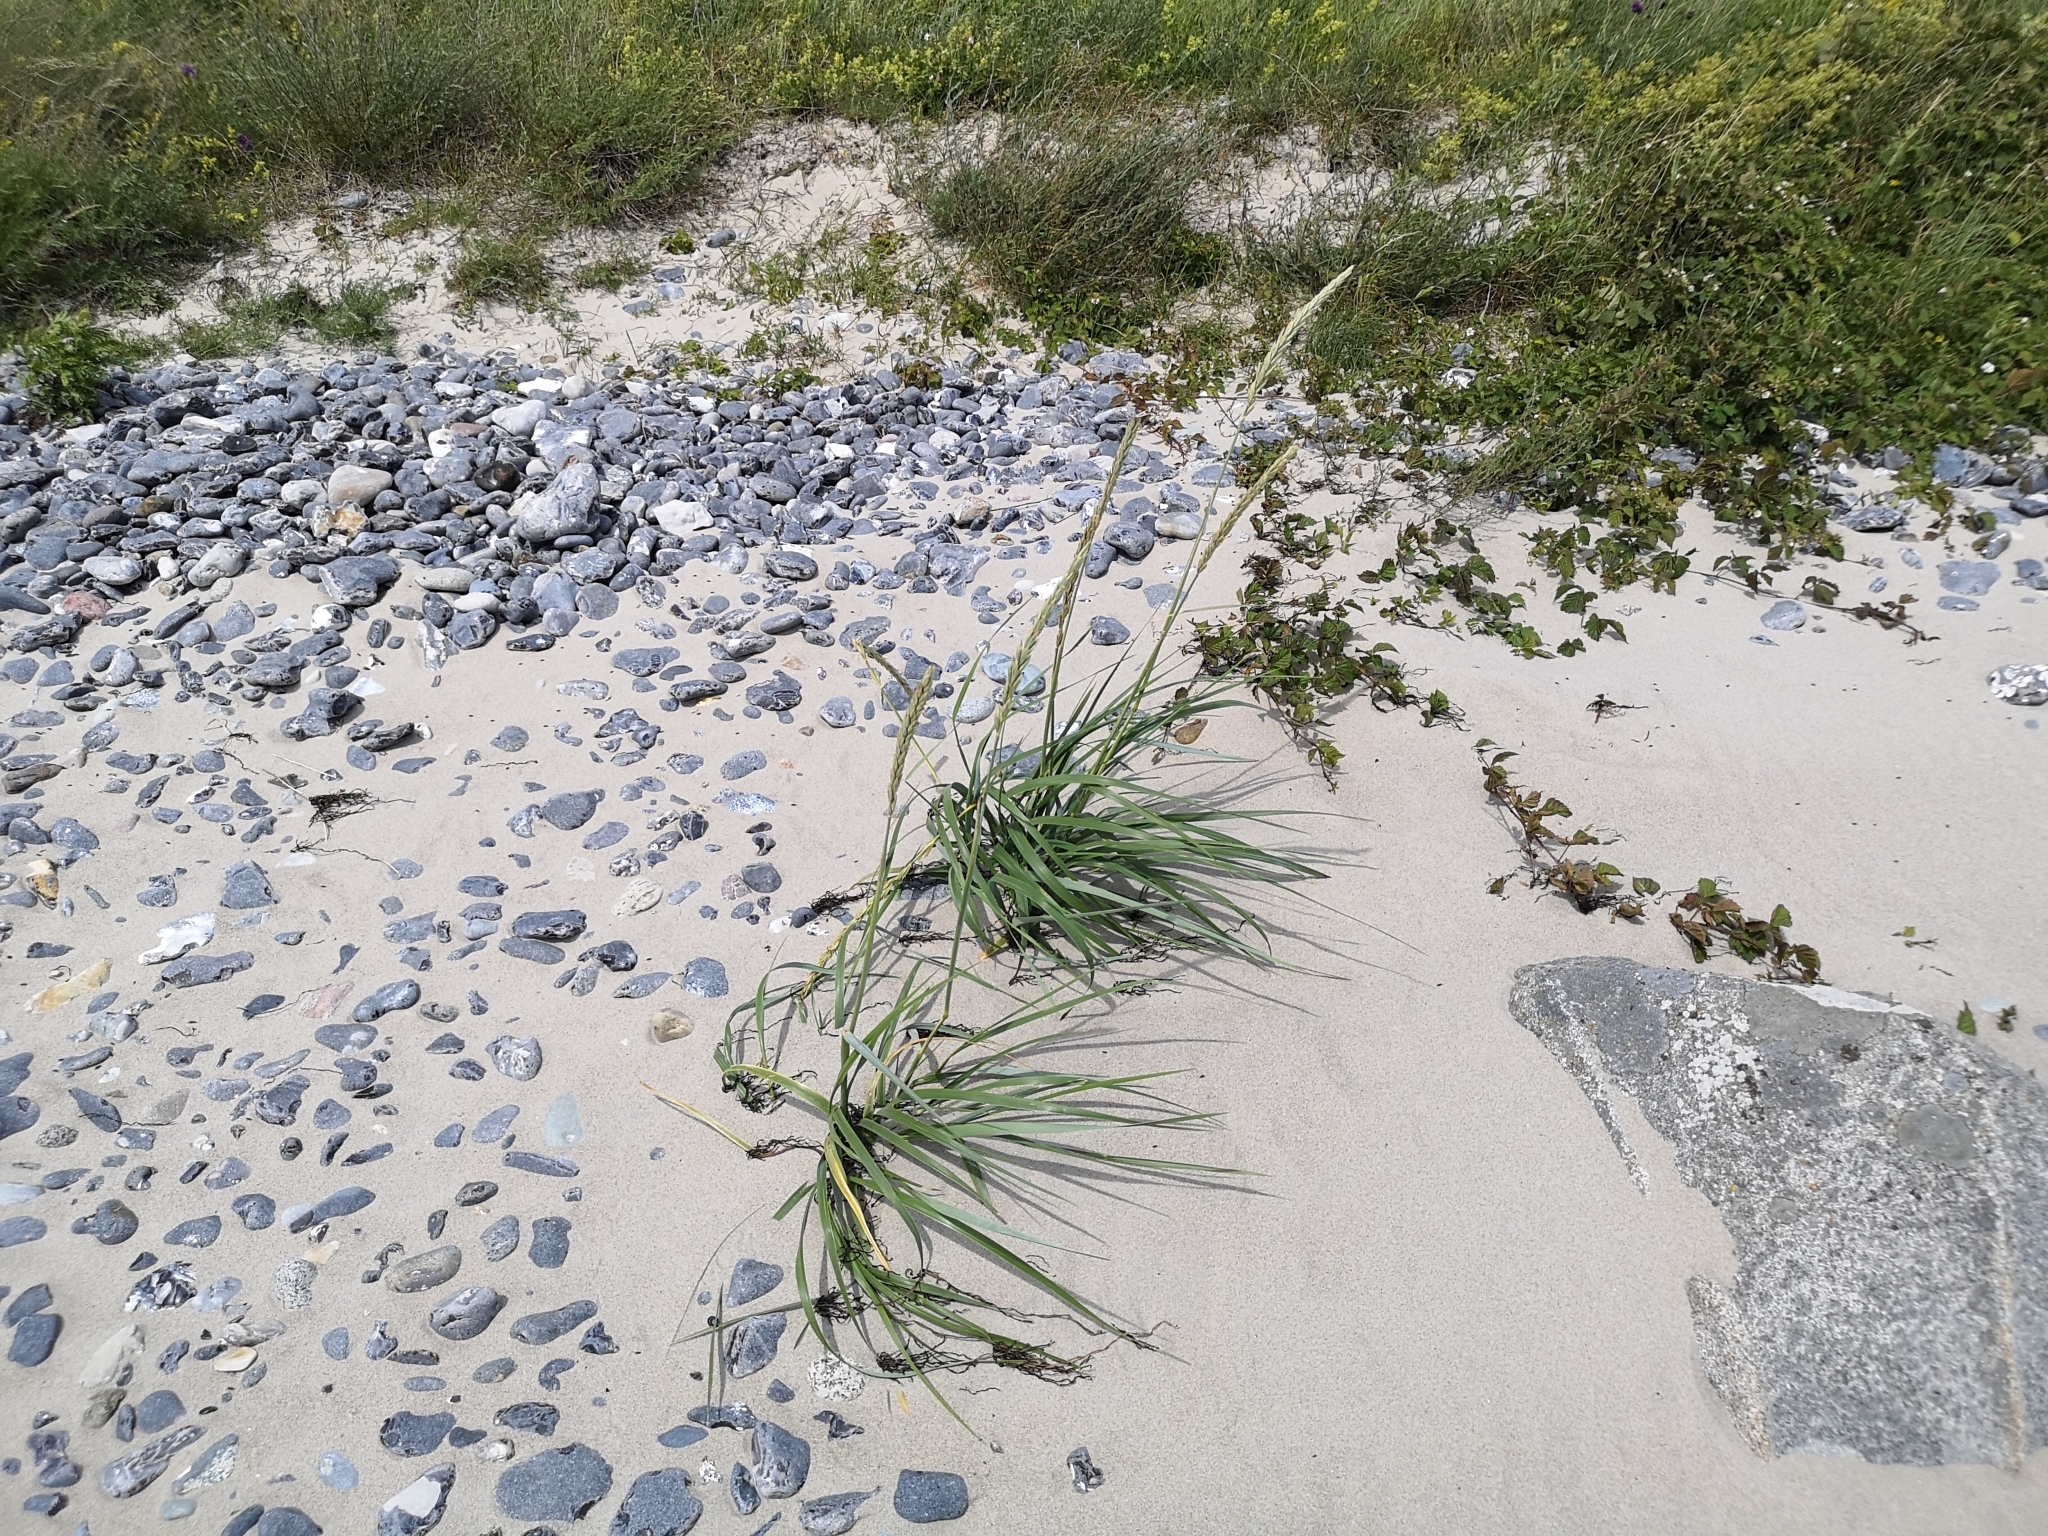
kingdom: Plantae
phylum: Tracheophyta
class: Liliopsida
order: Poales
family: Poaceae
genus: Leymus
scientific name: Leymus arenarius
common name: Lyme-grass
